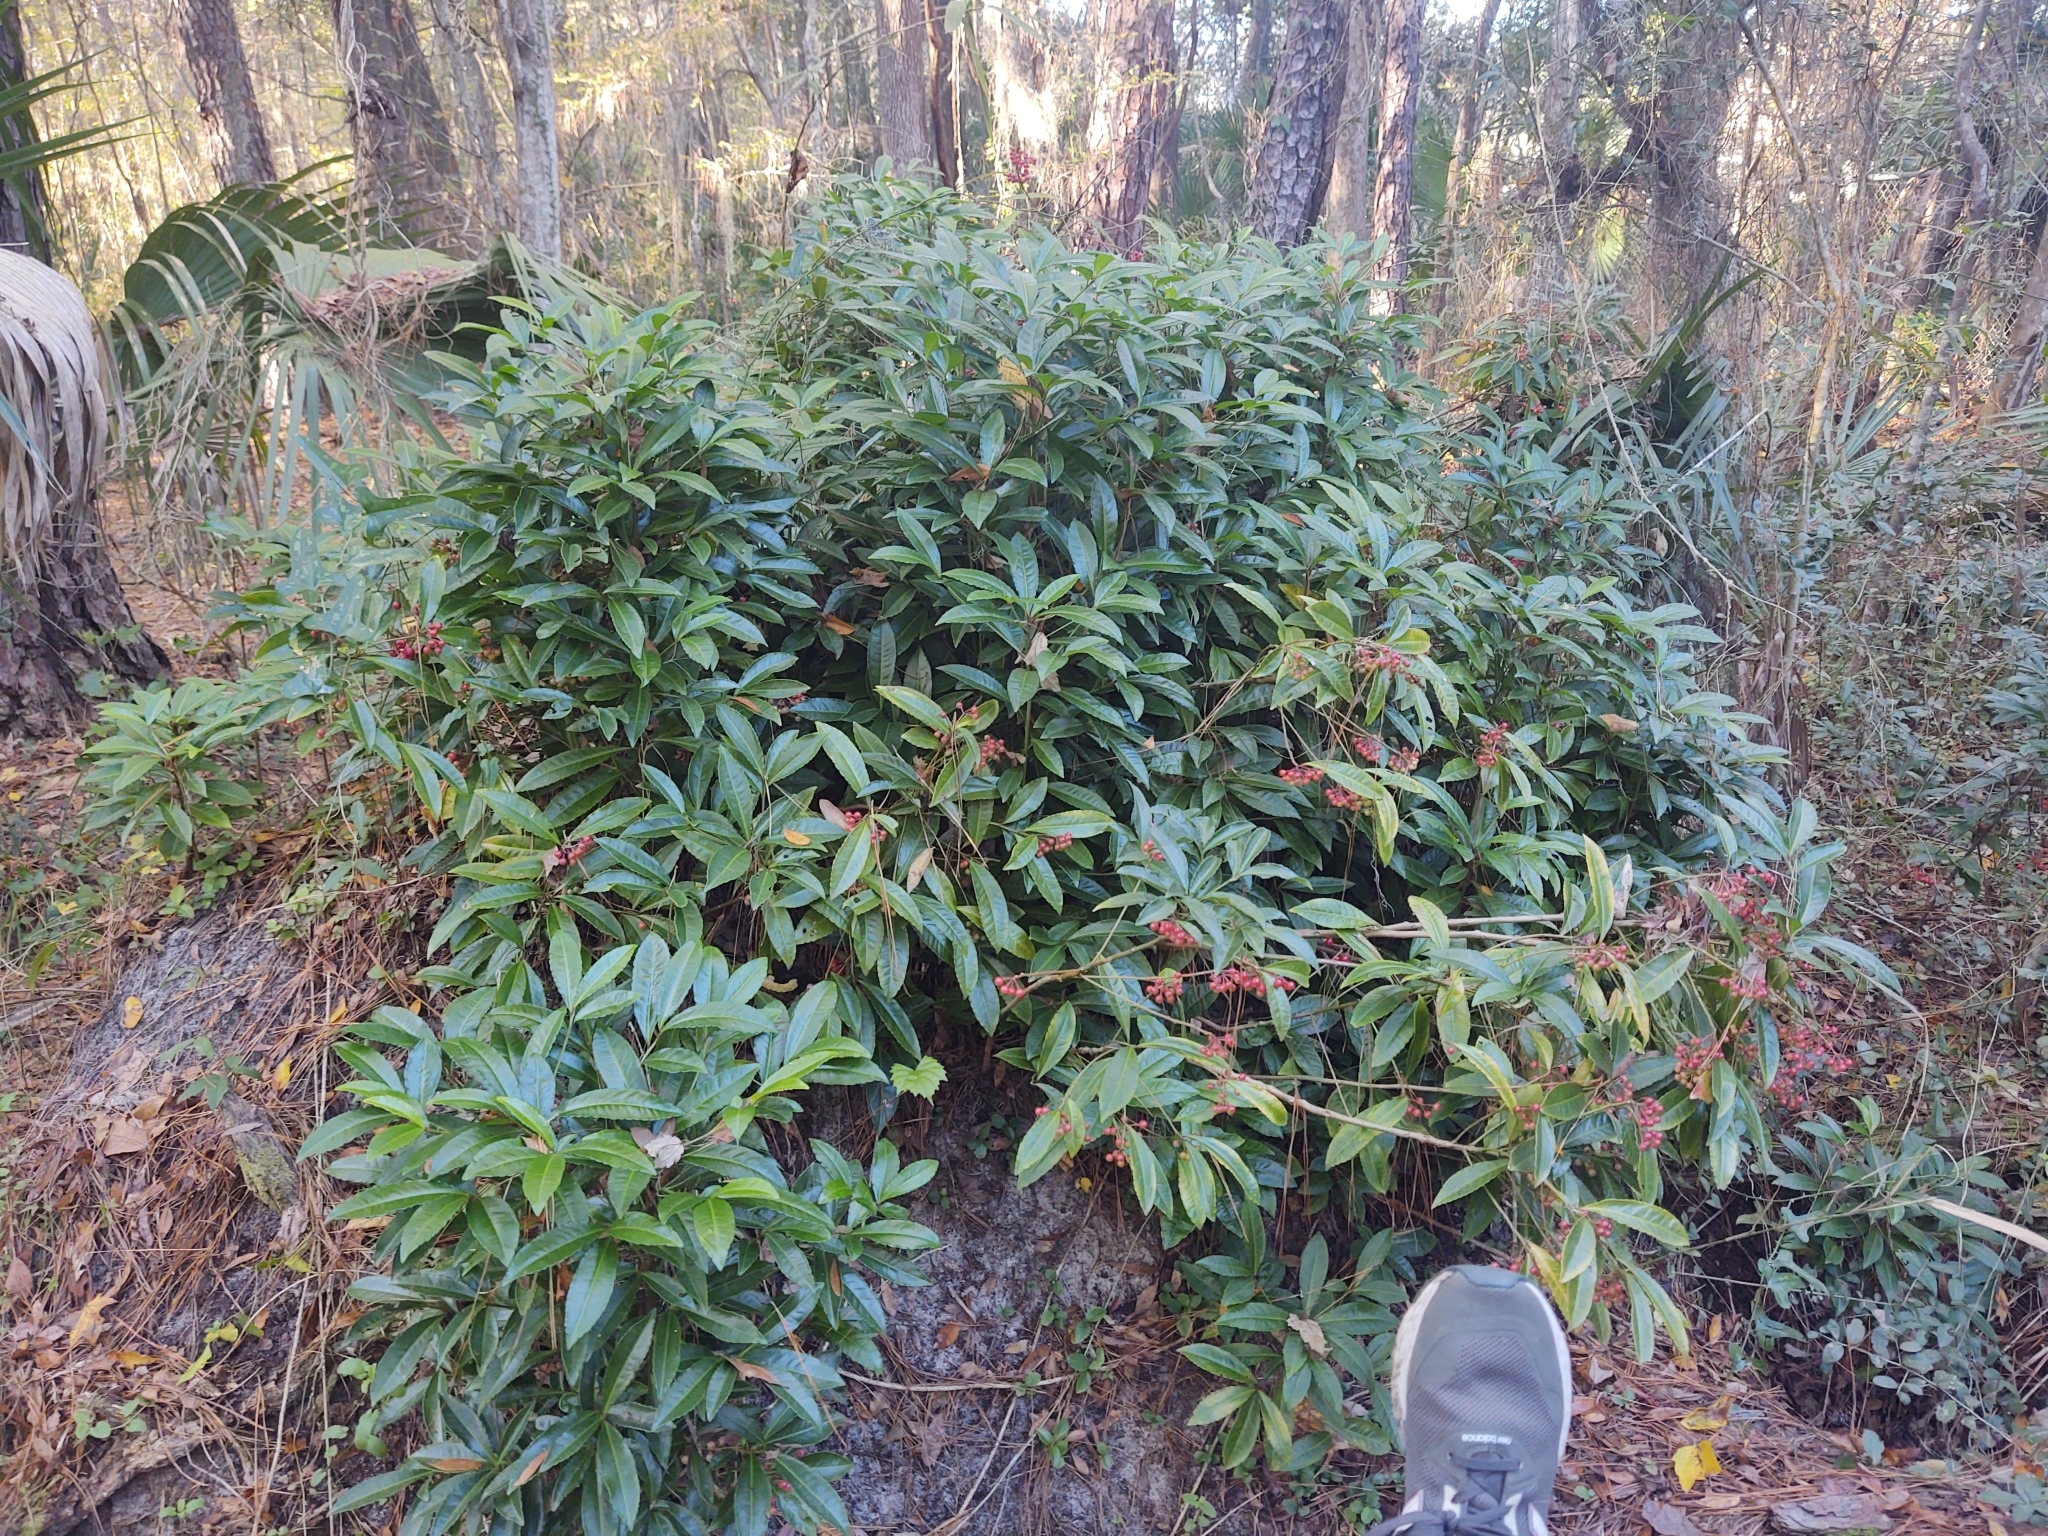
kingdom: Plantae
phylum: Tracheophyta
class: Magnoliopsida
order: Ericales
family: Primulaceae
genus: Ardisia
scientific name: Ardisia crenata
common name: Hen's eyes
